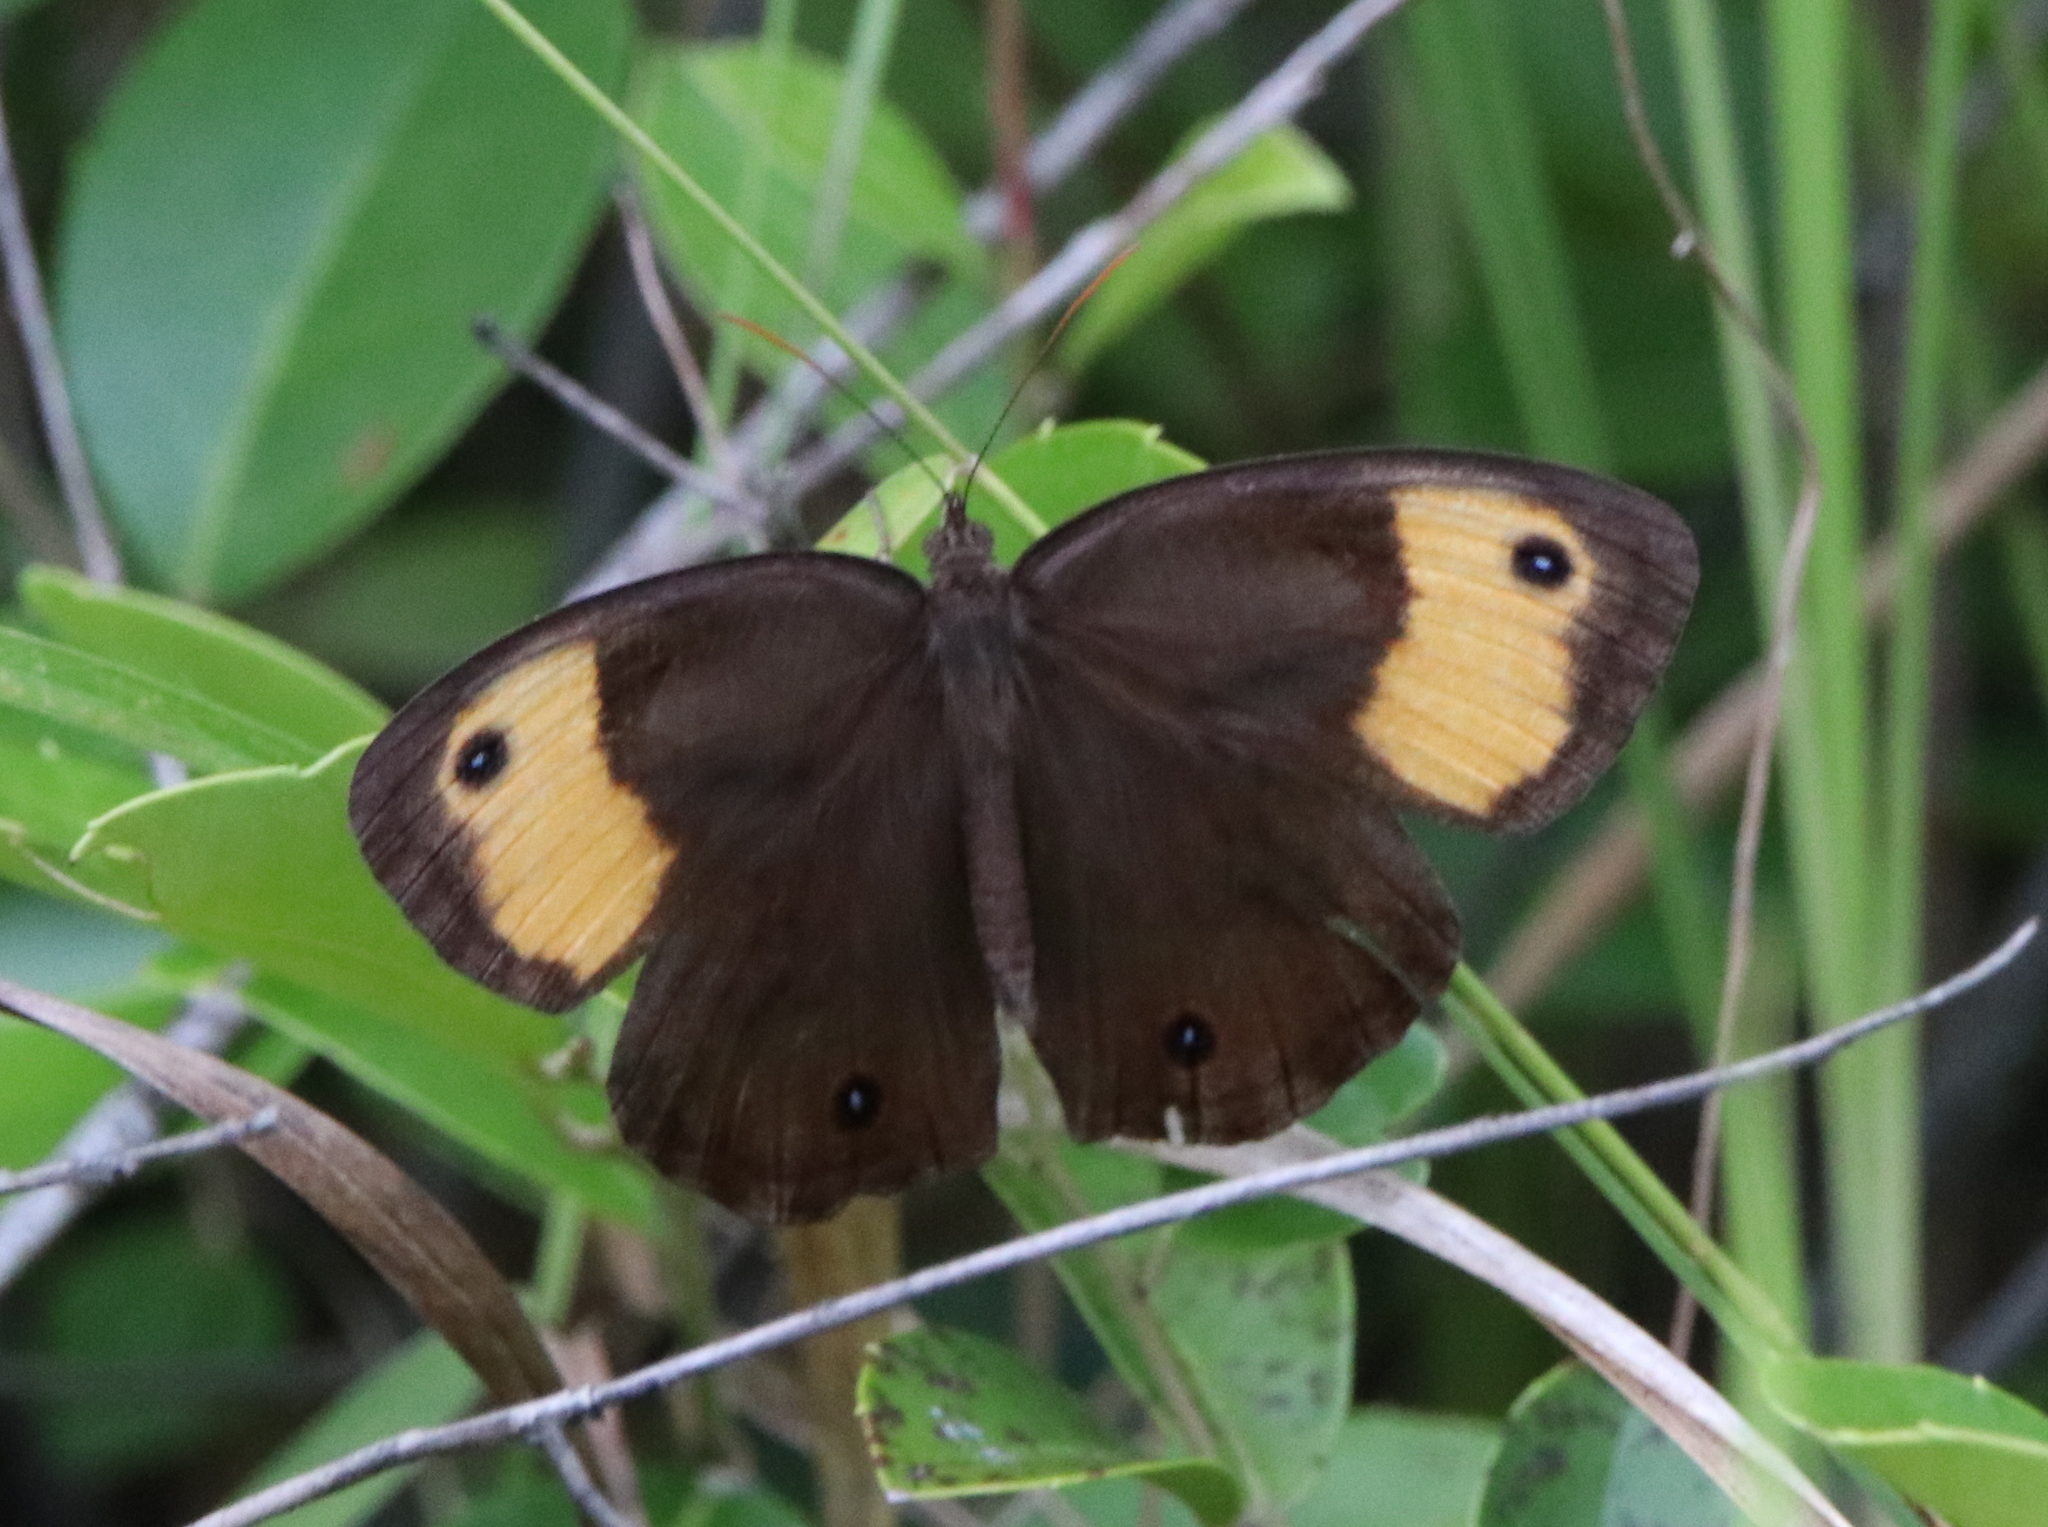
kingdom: Animalia
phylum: Arthropoda
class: Insecta
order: Lepidoptera
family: Nymphalidae
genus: Cercyonis
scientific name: Cercyonis pegala
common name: Common wood-nymph
